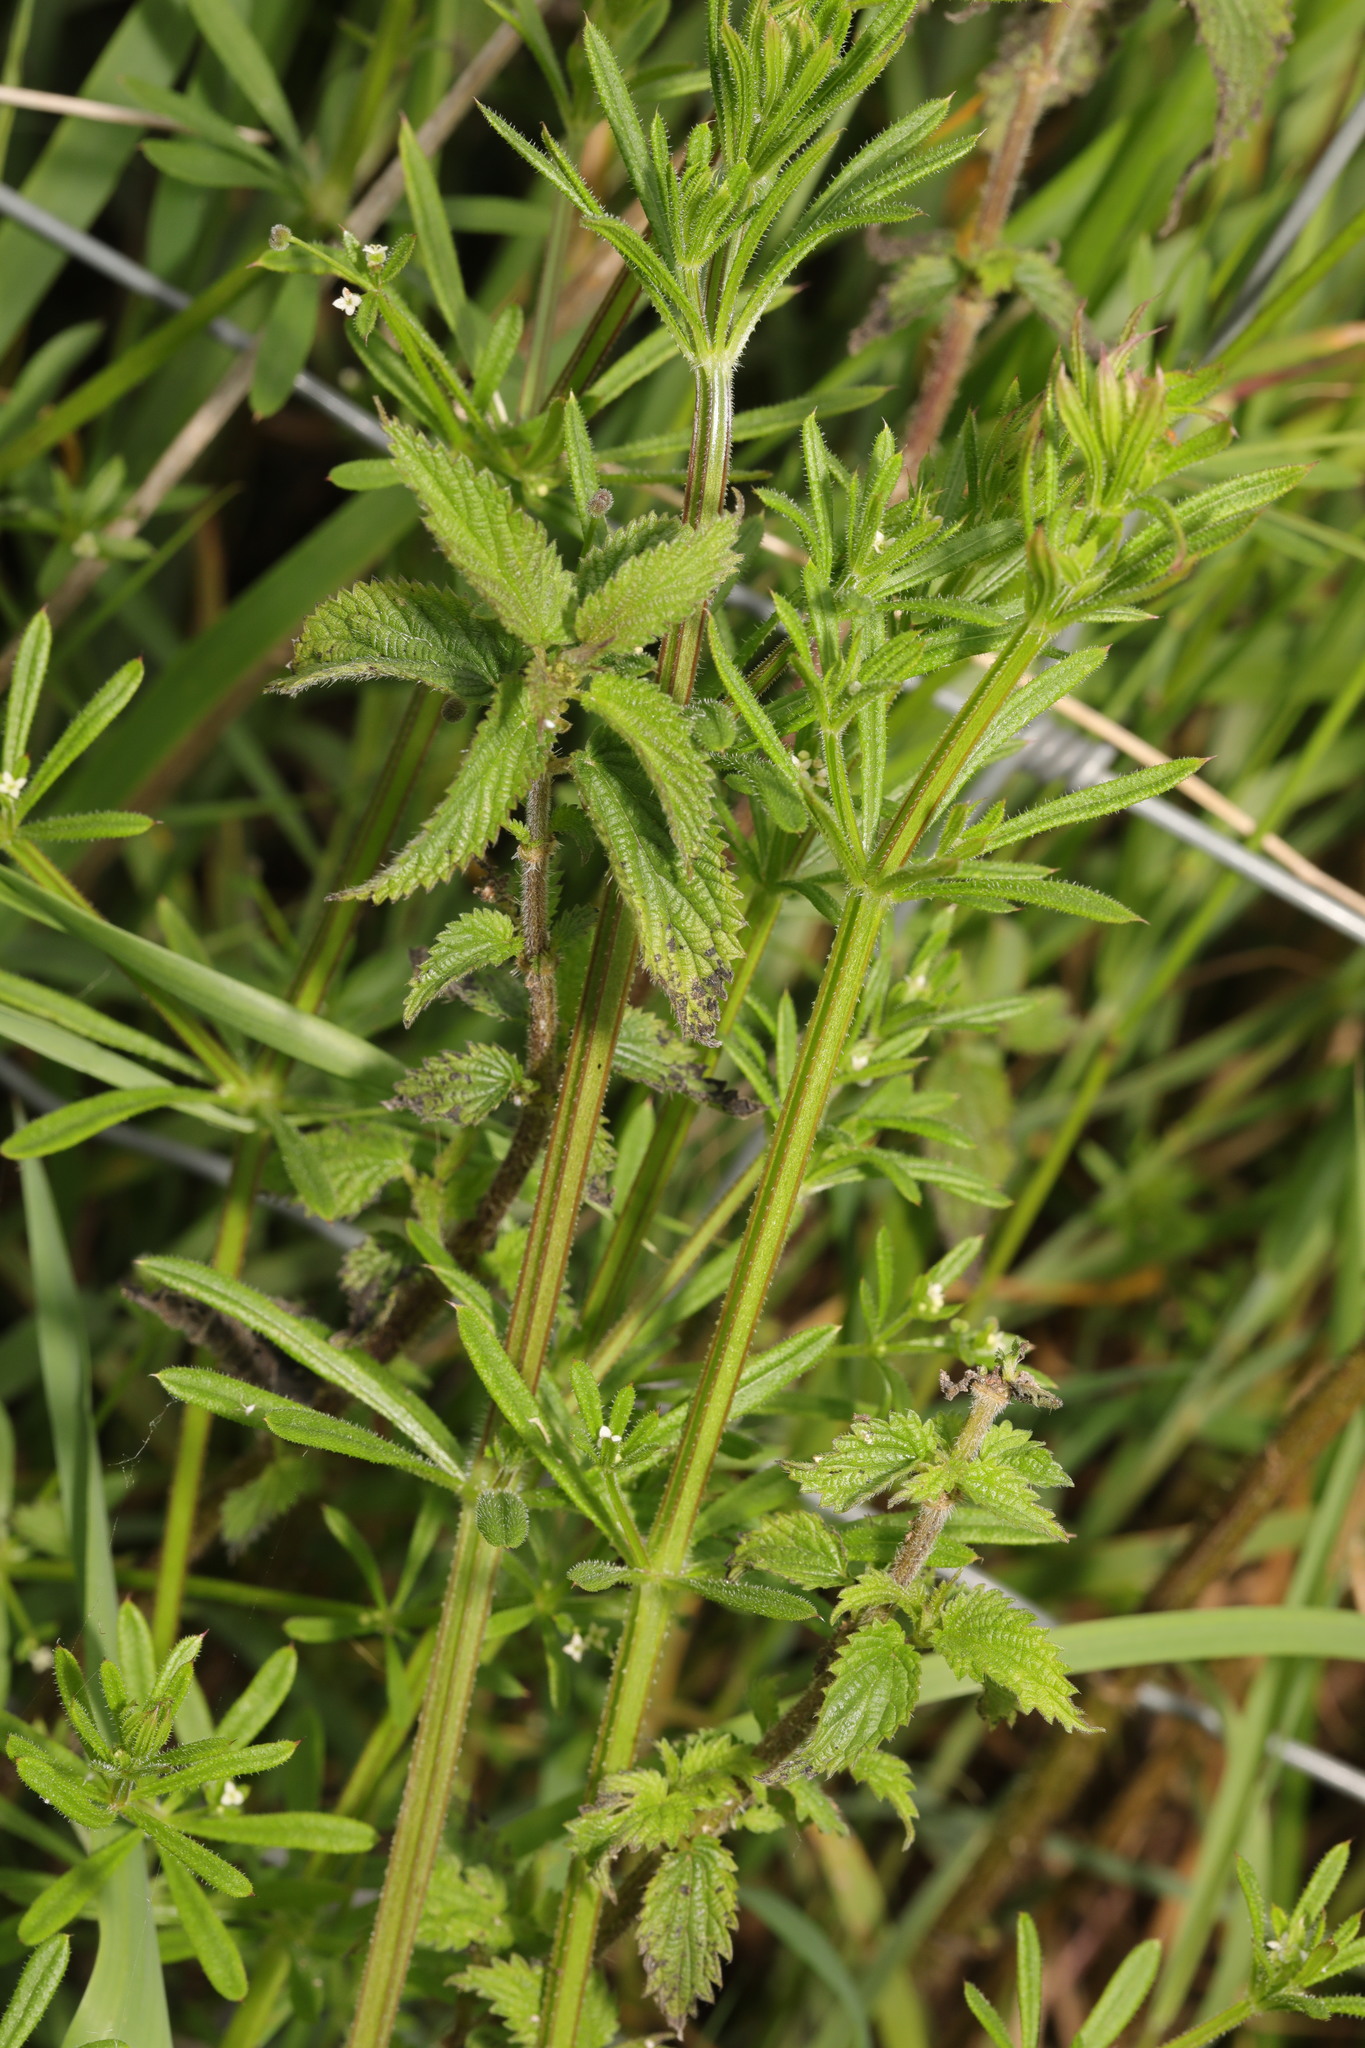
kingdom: Plantae
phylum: Tracheophyta
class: Magnoliopsida
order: Gentianales
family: Rubiaceae
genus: Galium
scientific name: Galium aparine
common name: Cleavers
